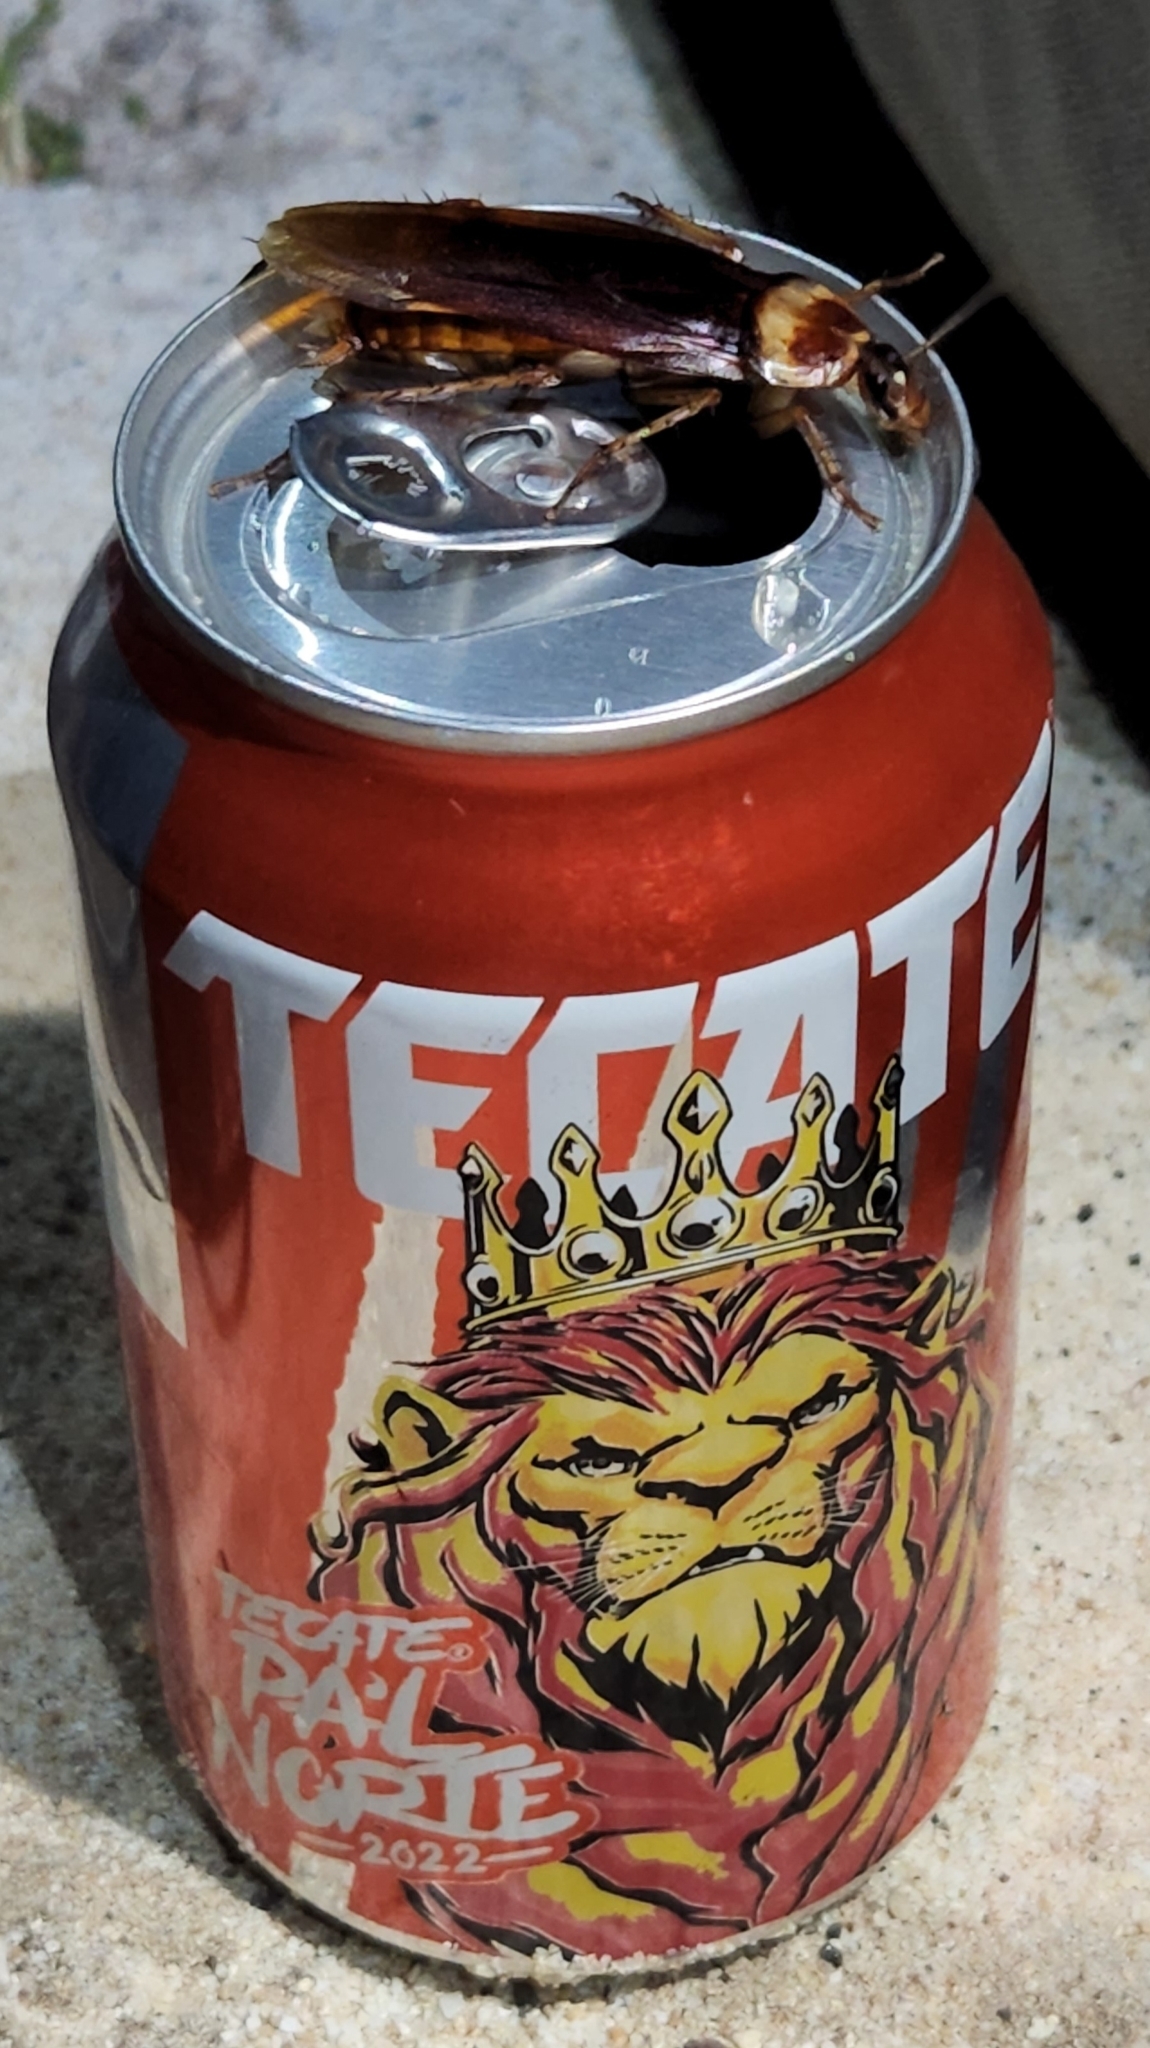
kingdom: Animalia
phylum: Arthropoda
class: Insecta
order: Blattodea
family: Blattidae
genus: Periplaneta
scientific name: Periplaneta americana
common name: American cockroach
